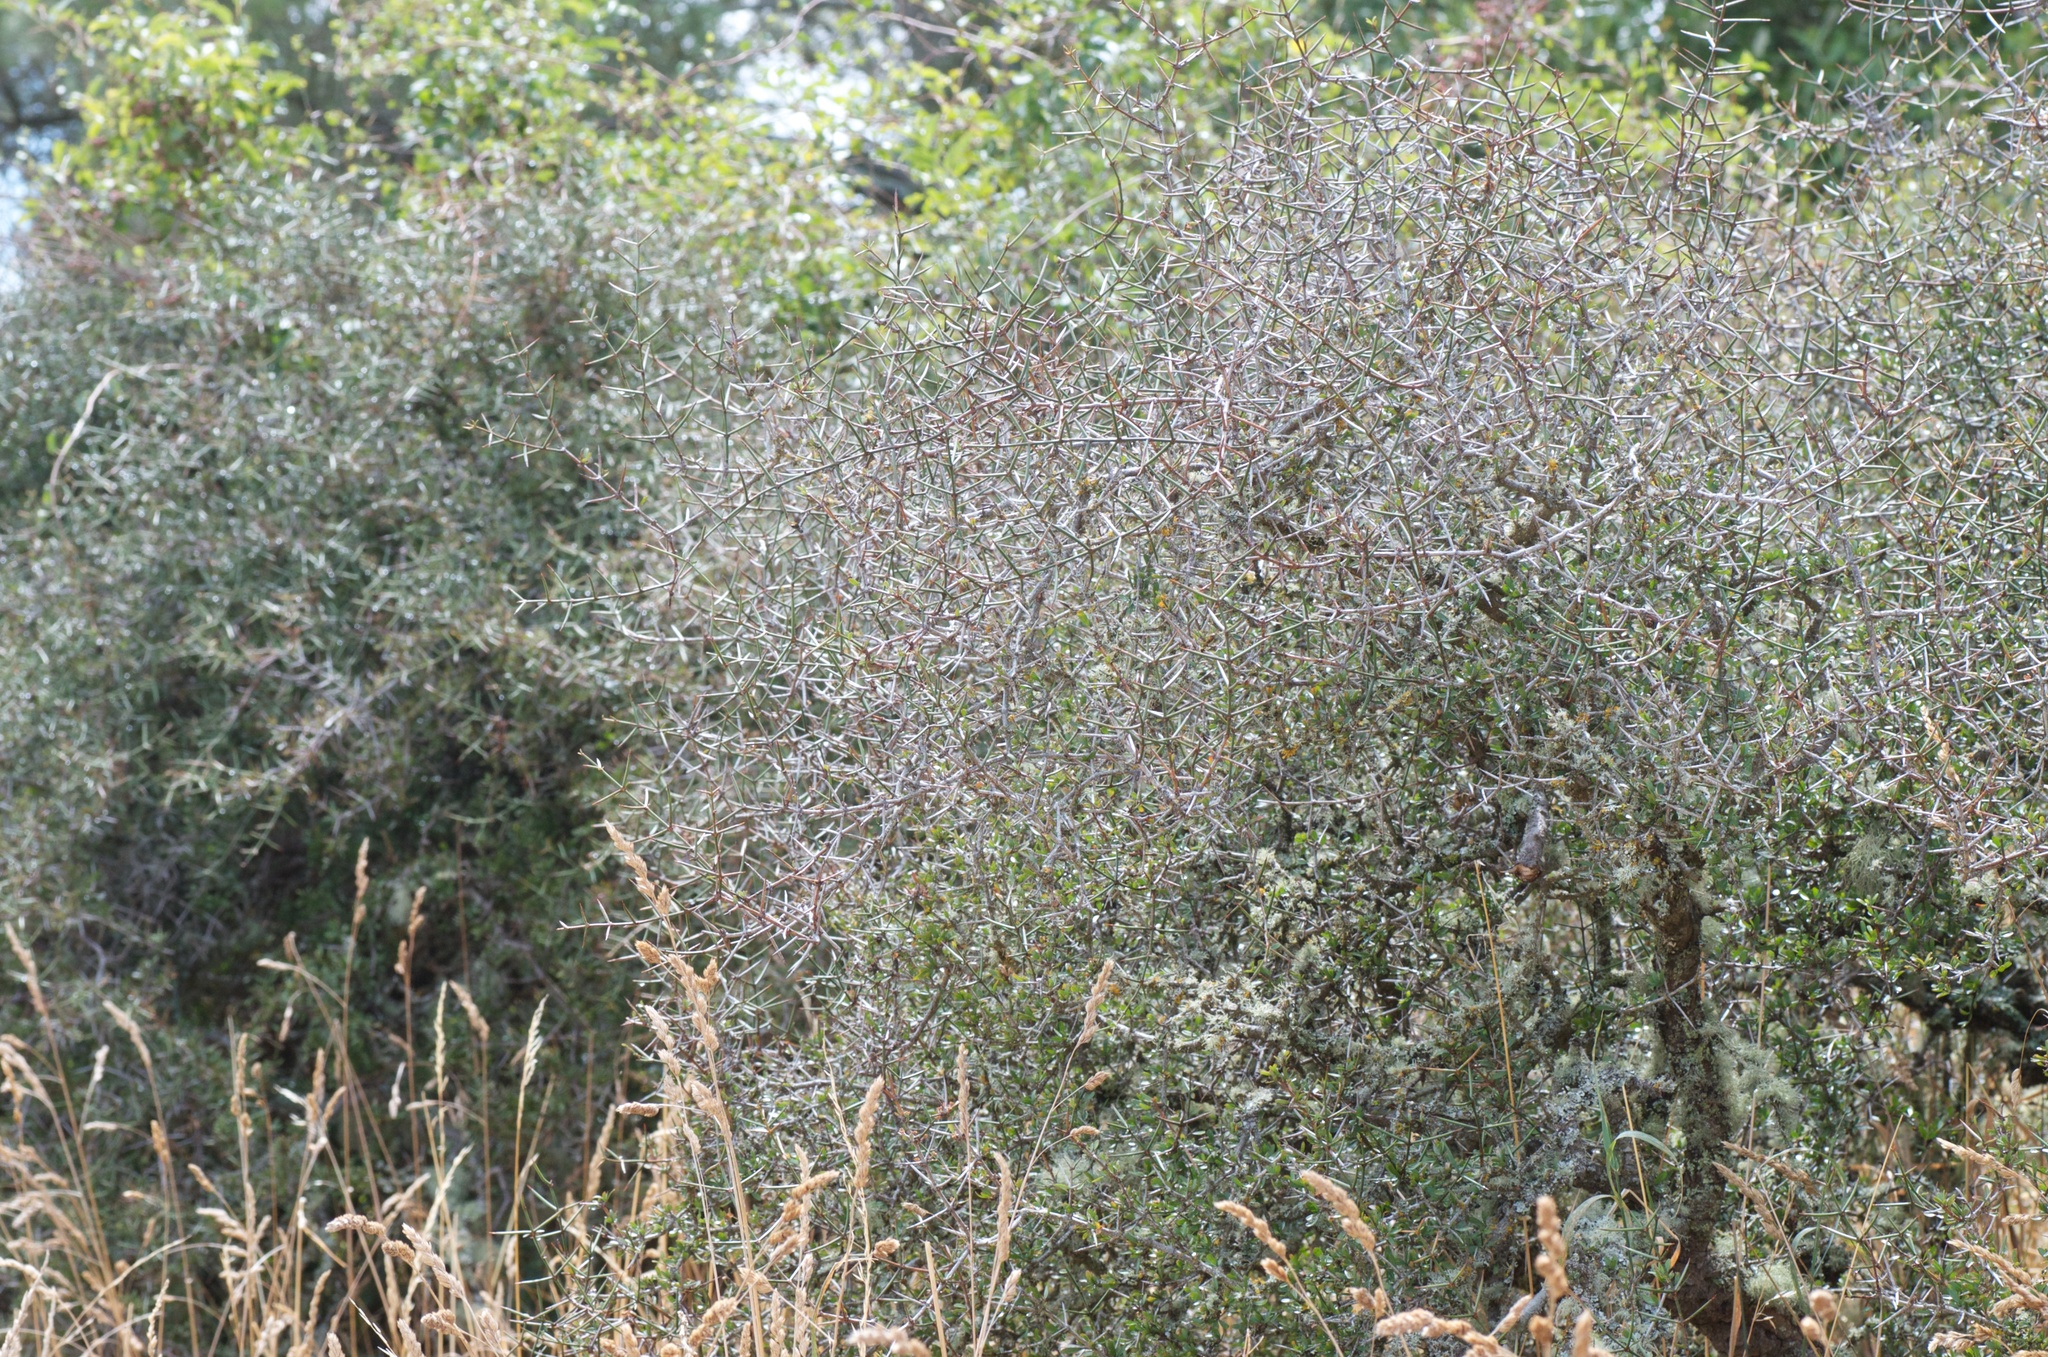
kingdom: Plantae
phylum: Tracheophyta
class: Magnoliopsida
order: Rosales
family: Rhamnaceae
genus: Discaria
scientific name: Discaria toumatou
